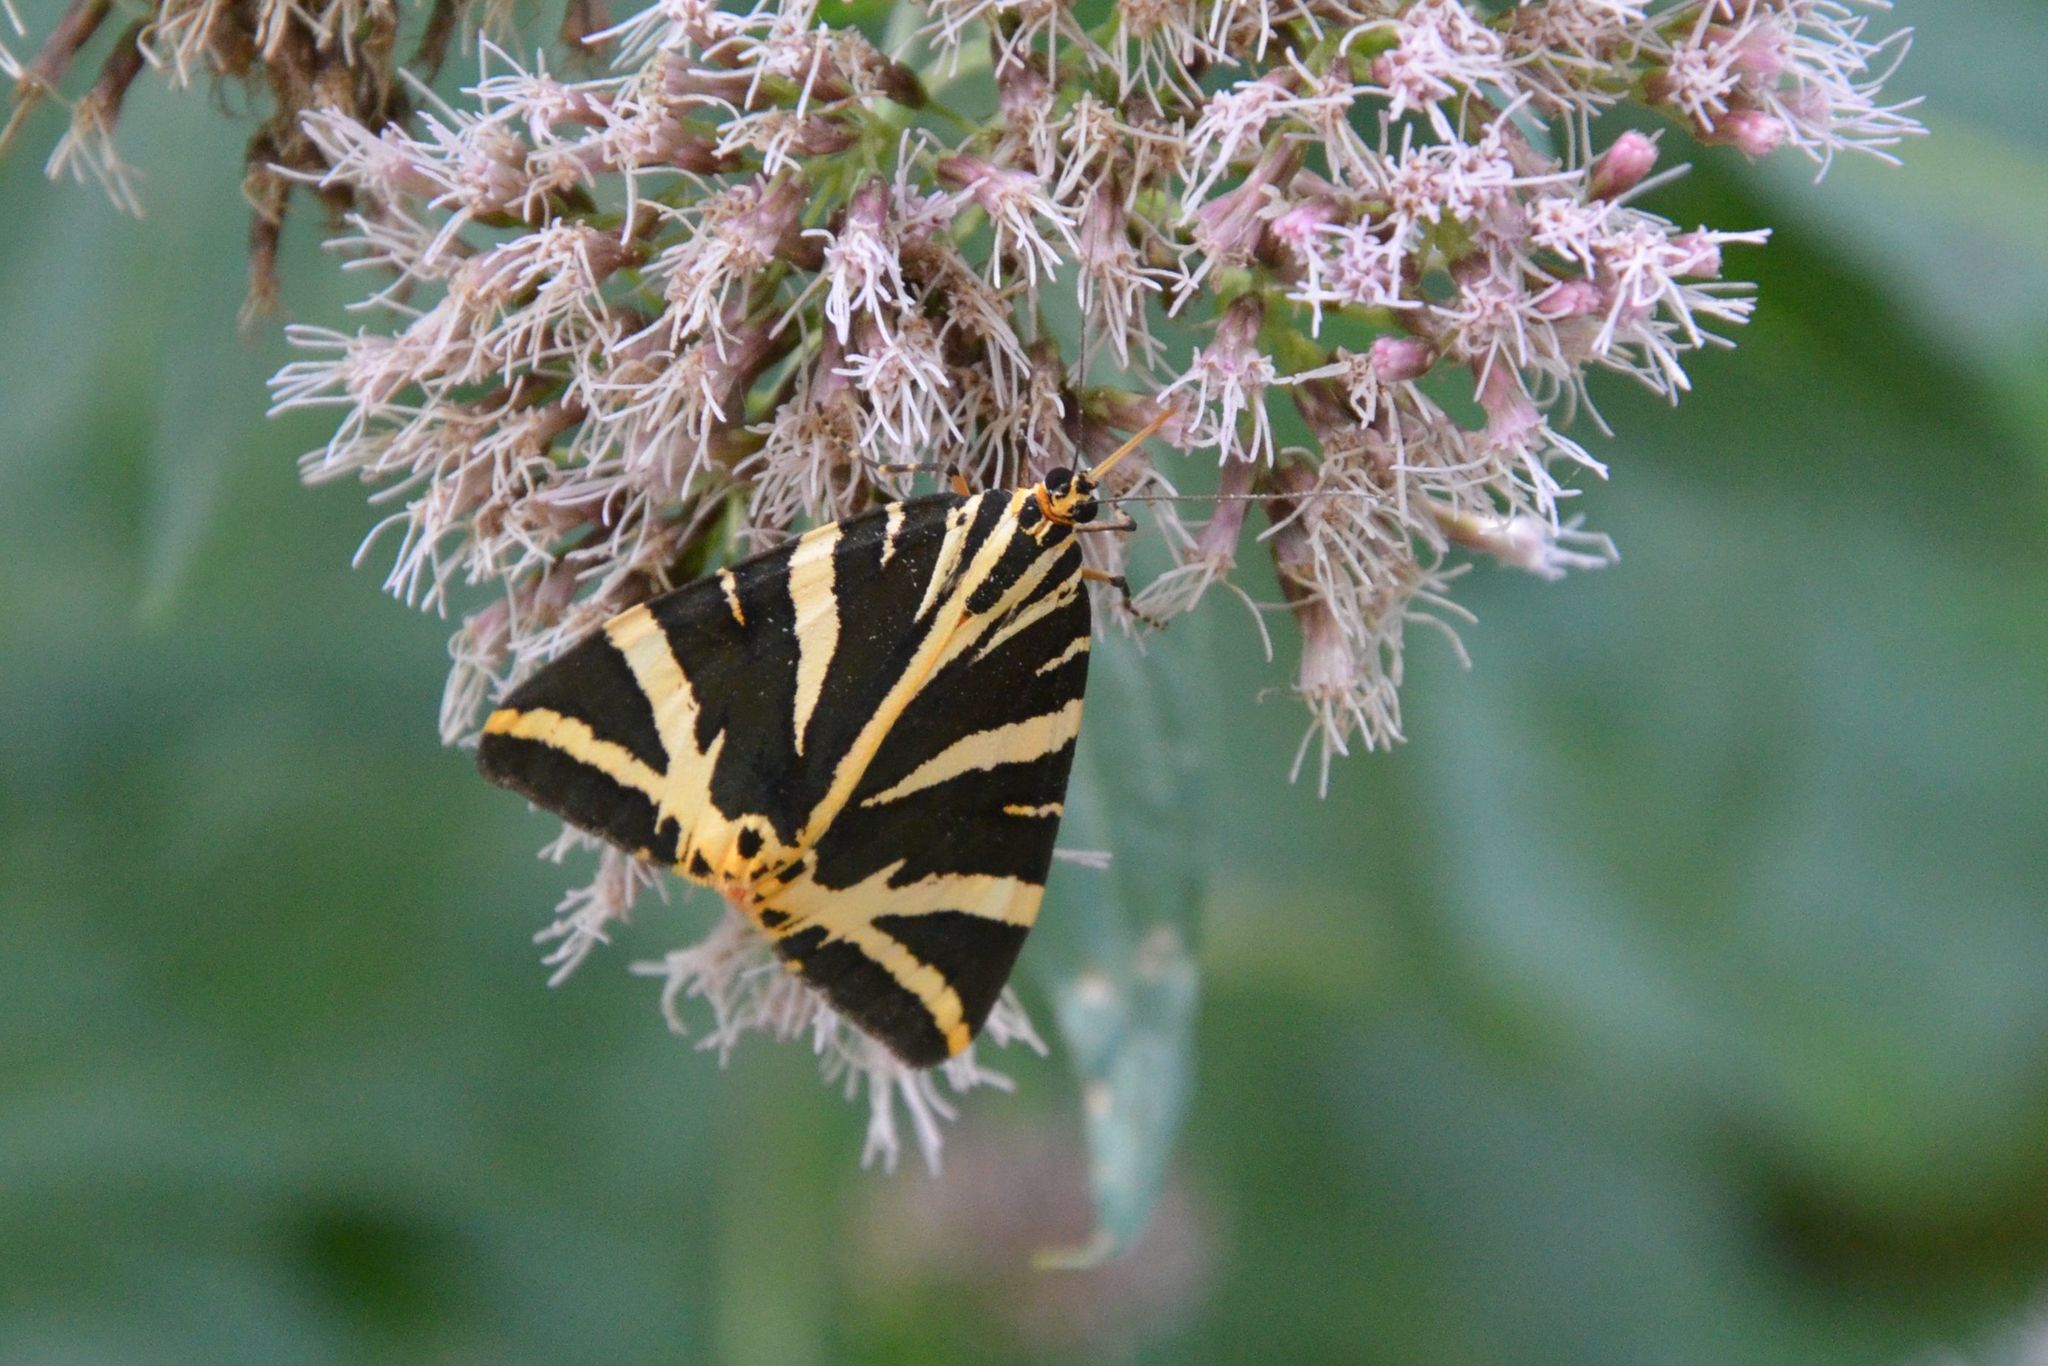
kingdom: Animalia
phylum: Arthropoda
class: Insecta
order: Lepidoptera
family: Erebidae
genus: Euplagia
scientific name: Euplagia quadripunctaria
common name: Jersey tiger
